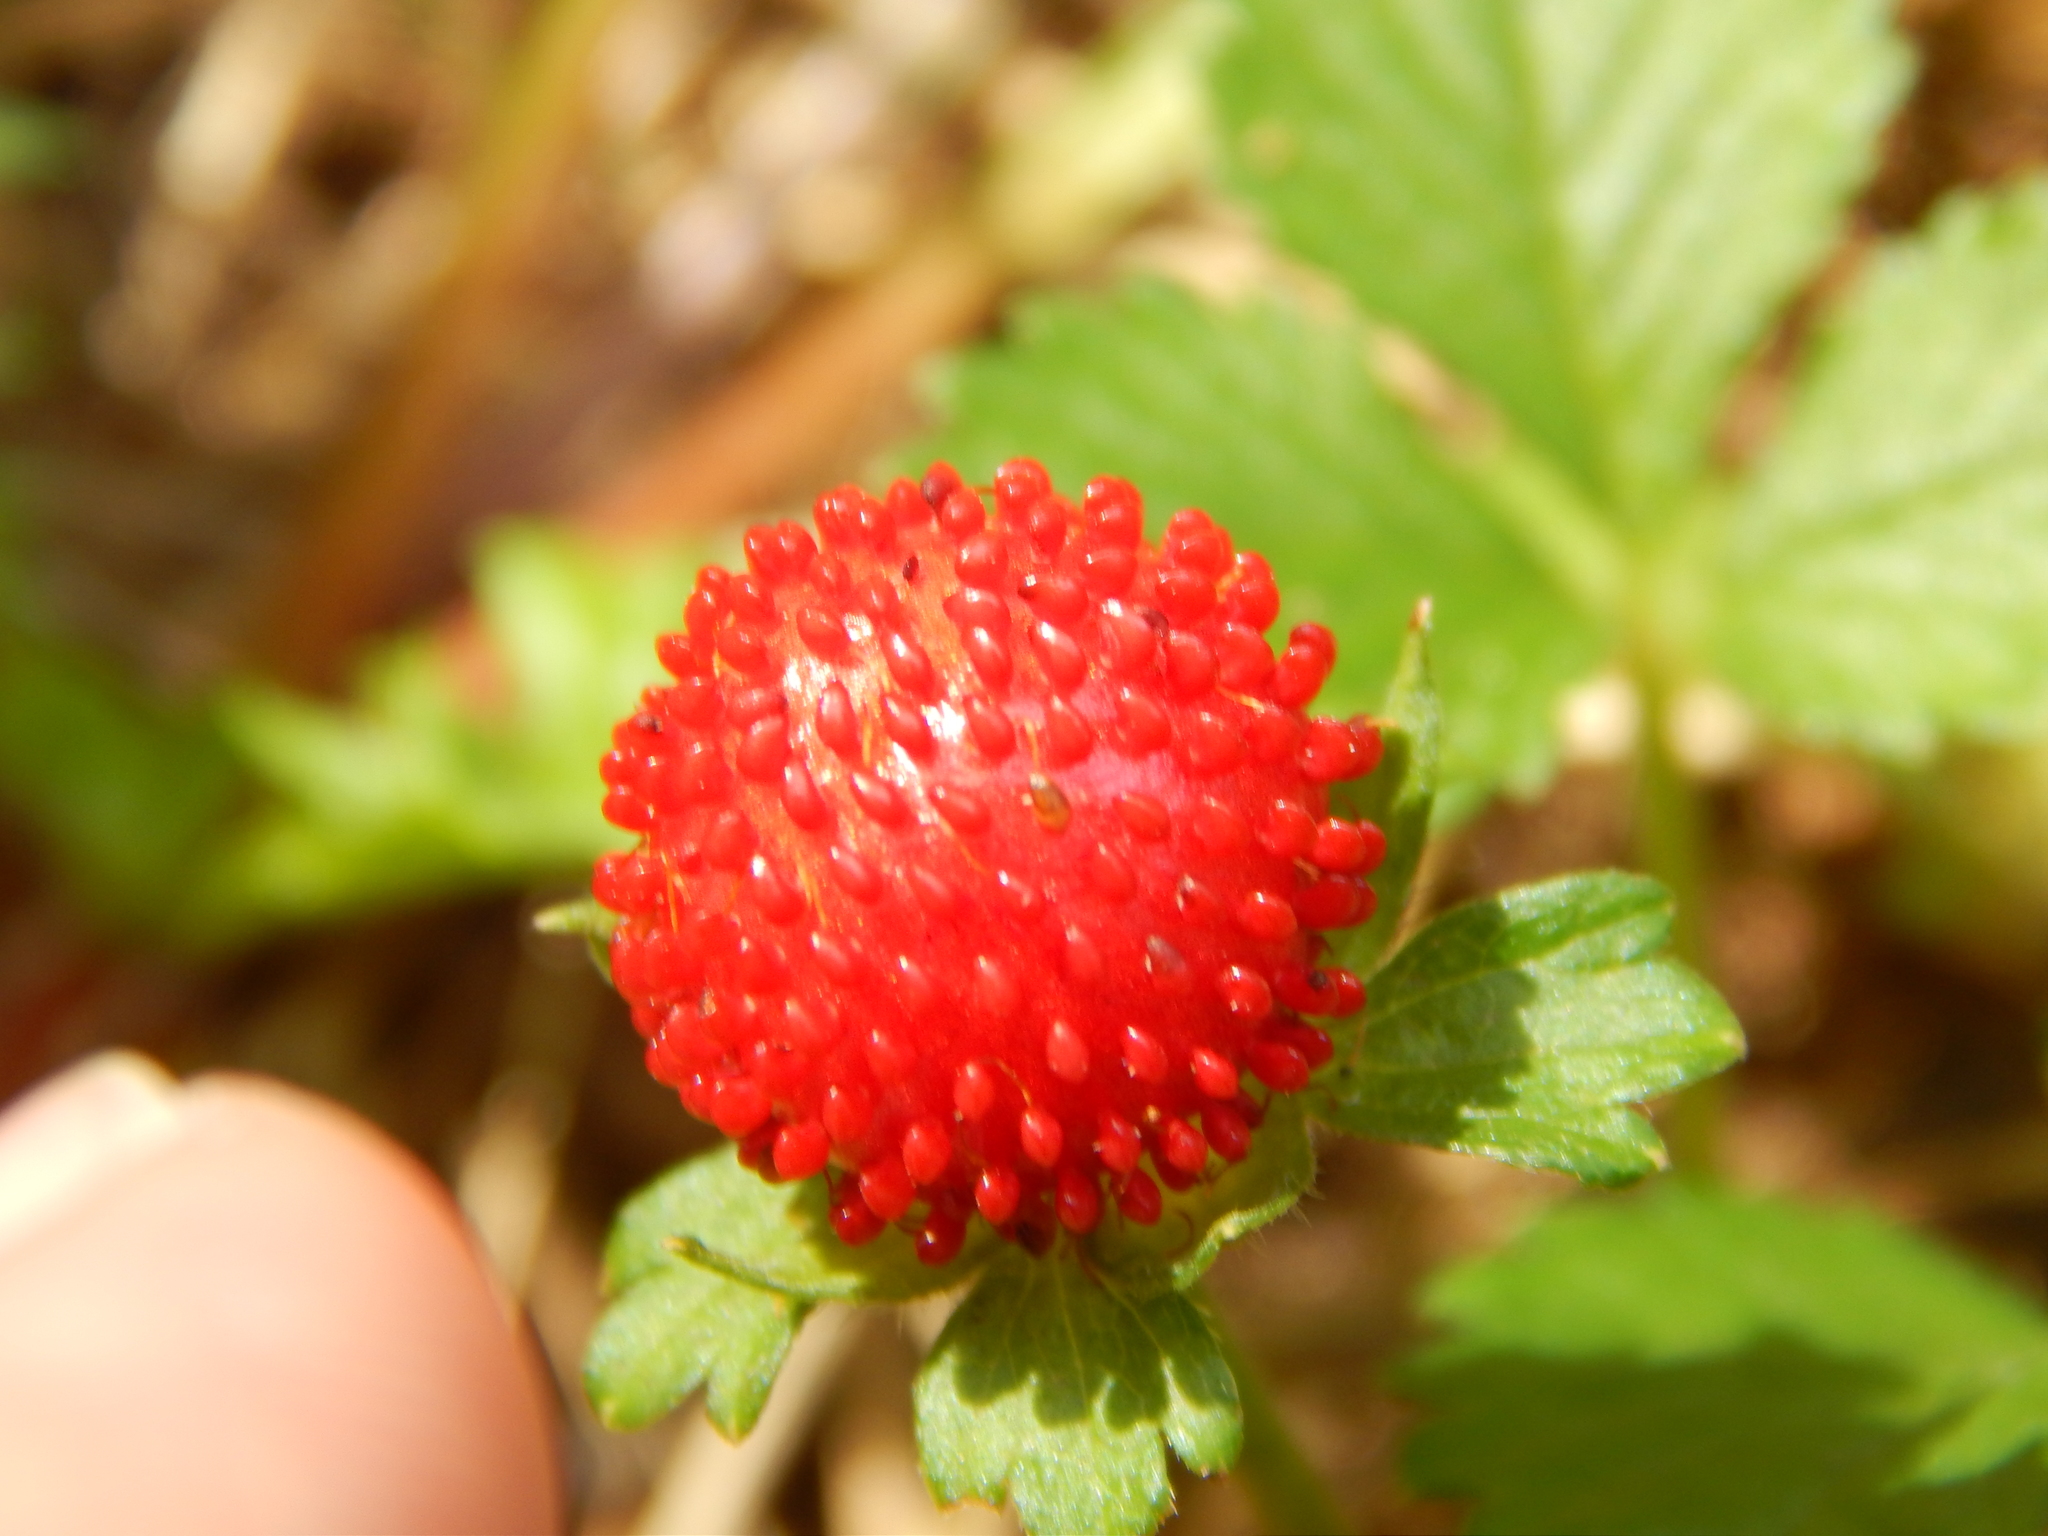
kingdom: Plantae
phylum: Tracheophyta
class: Magnoliopsida
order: Rosales
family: Rosaceae
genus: Potentilla
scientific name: Potentilla indica
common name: Yellow-flowered strawberry
